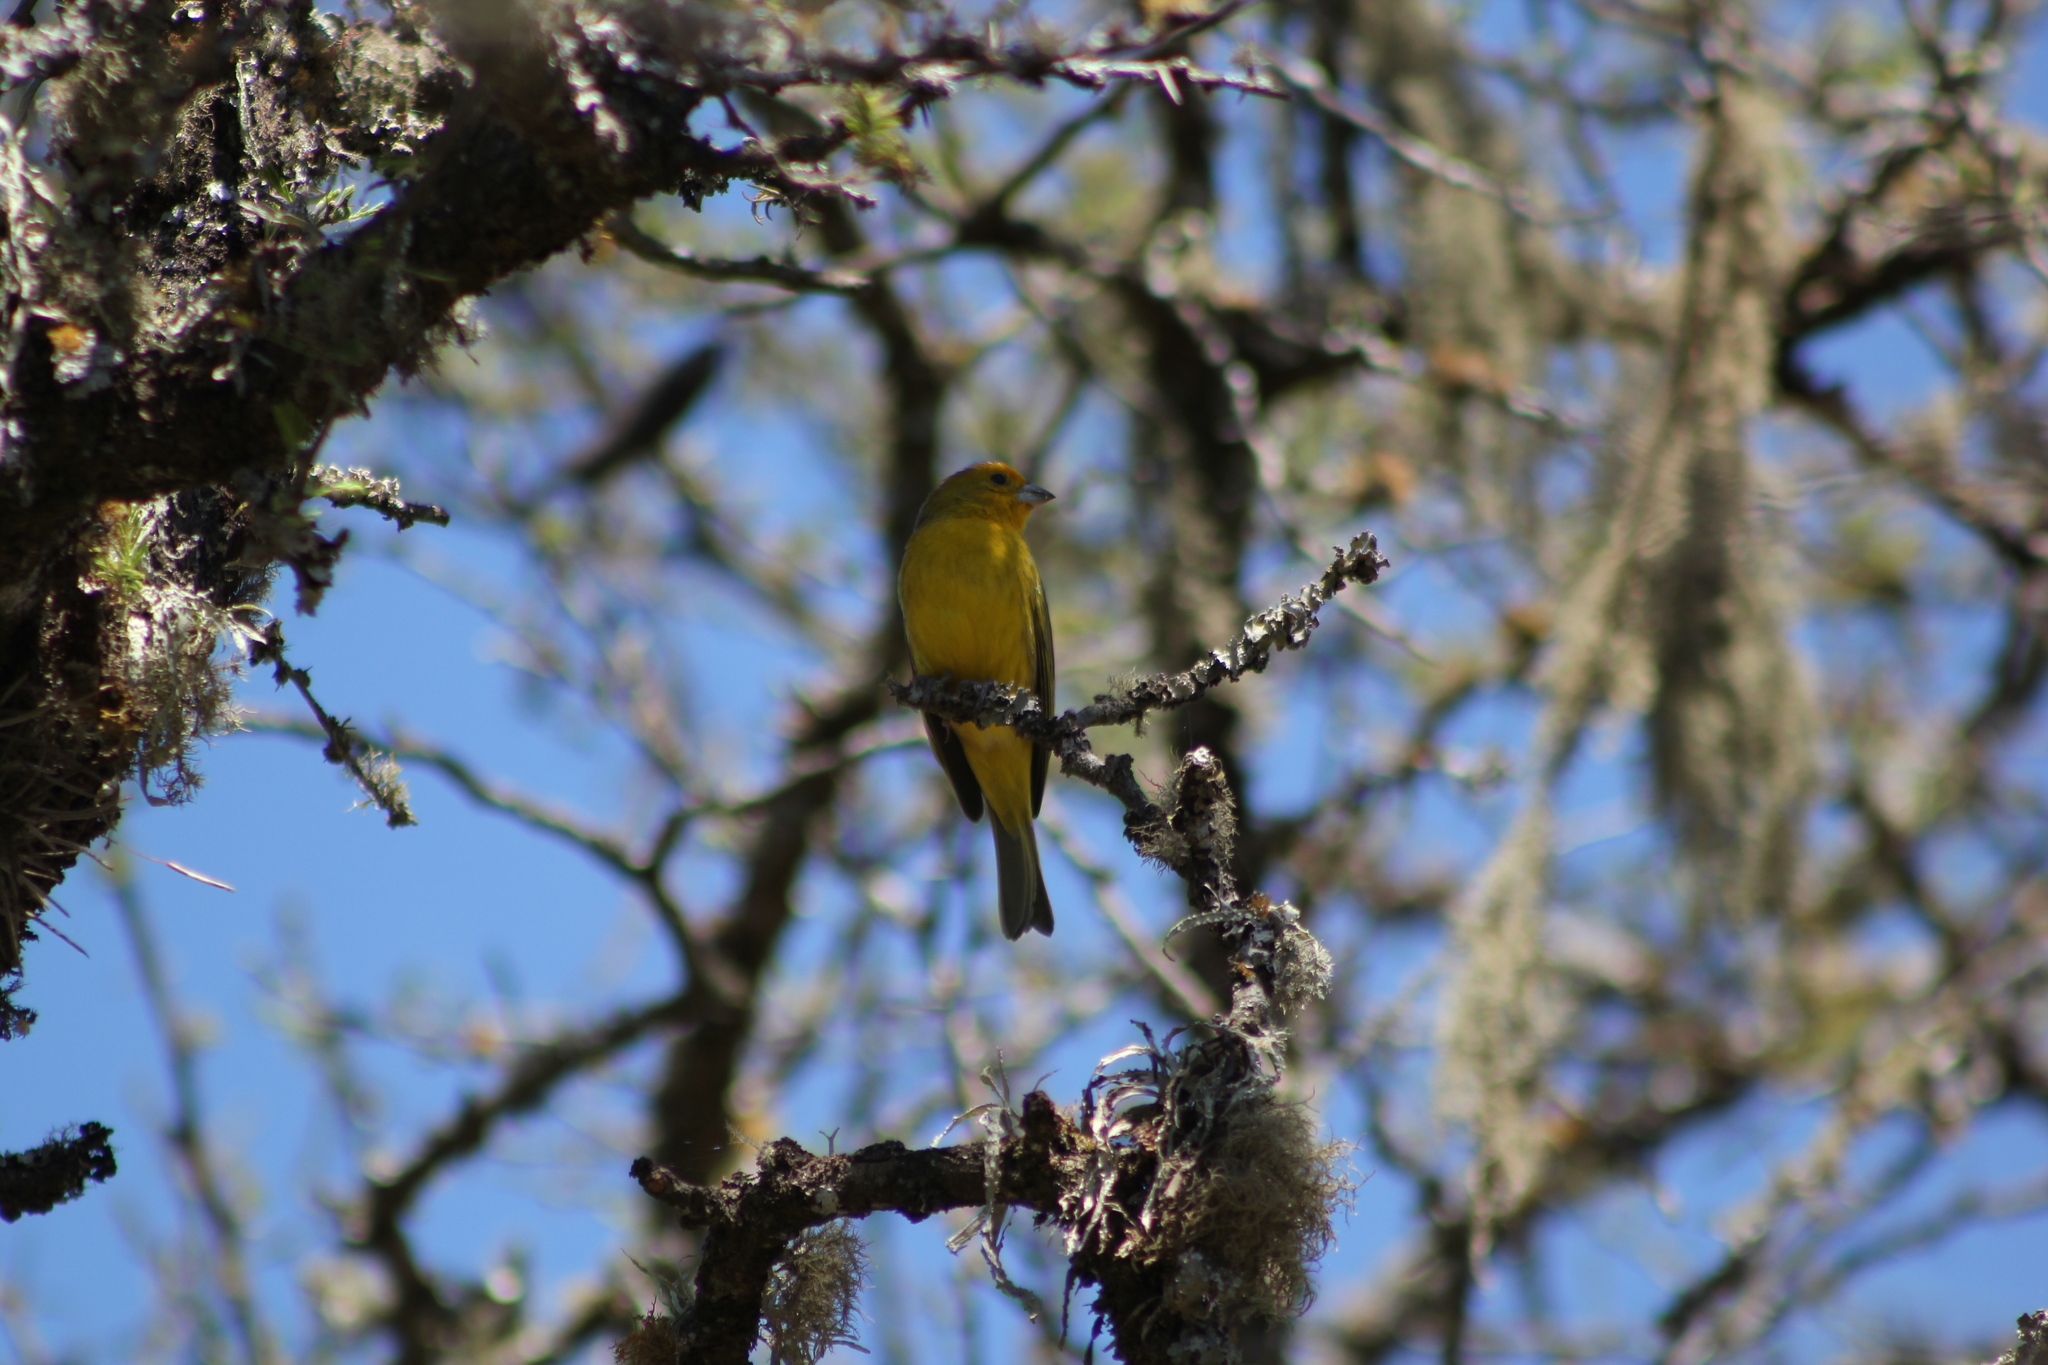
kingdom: Animalia
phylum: Chordata
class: Aves
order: Passeriformes
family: Thraupidae
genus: Sicalis
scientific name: Sicalis flaveola
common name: Saffron finch
